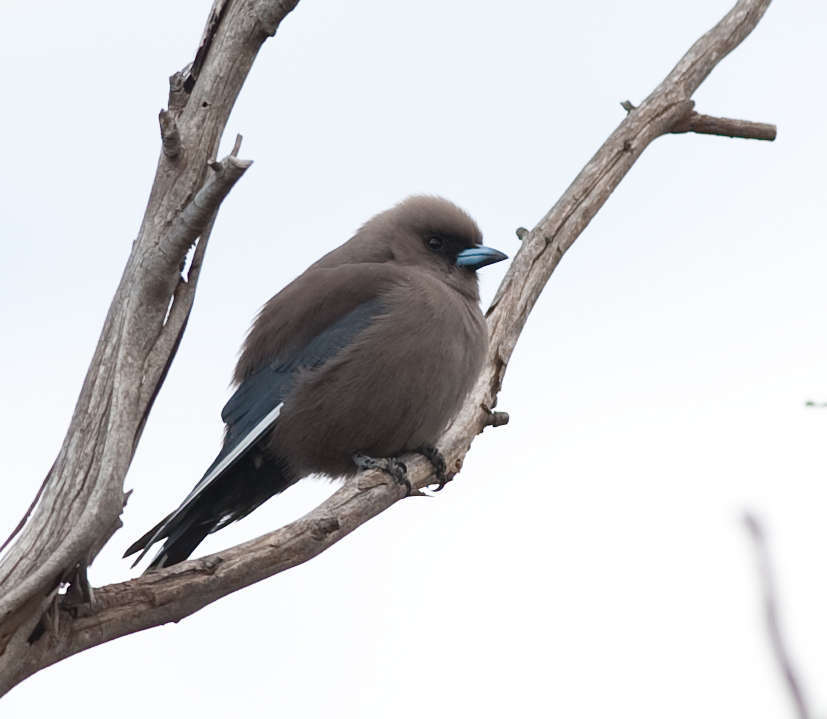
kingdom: Animalia
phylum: Chordata
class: Aves
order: Passeriformes
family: Artamidae
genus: Artamus
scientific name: Artamus cyanopterus
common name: Dusky woodswallow
